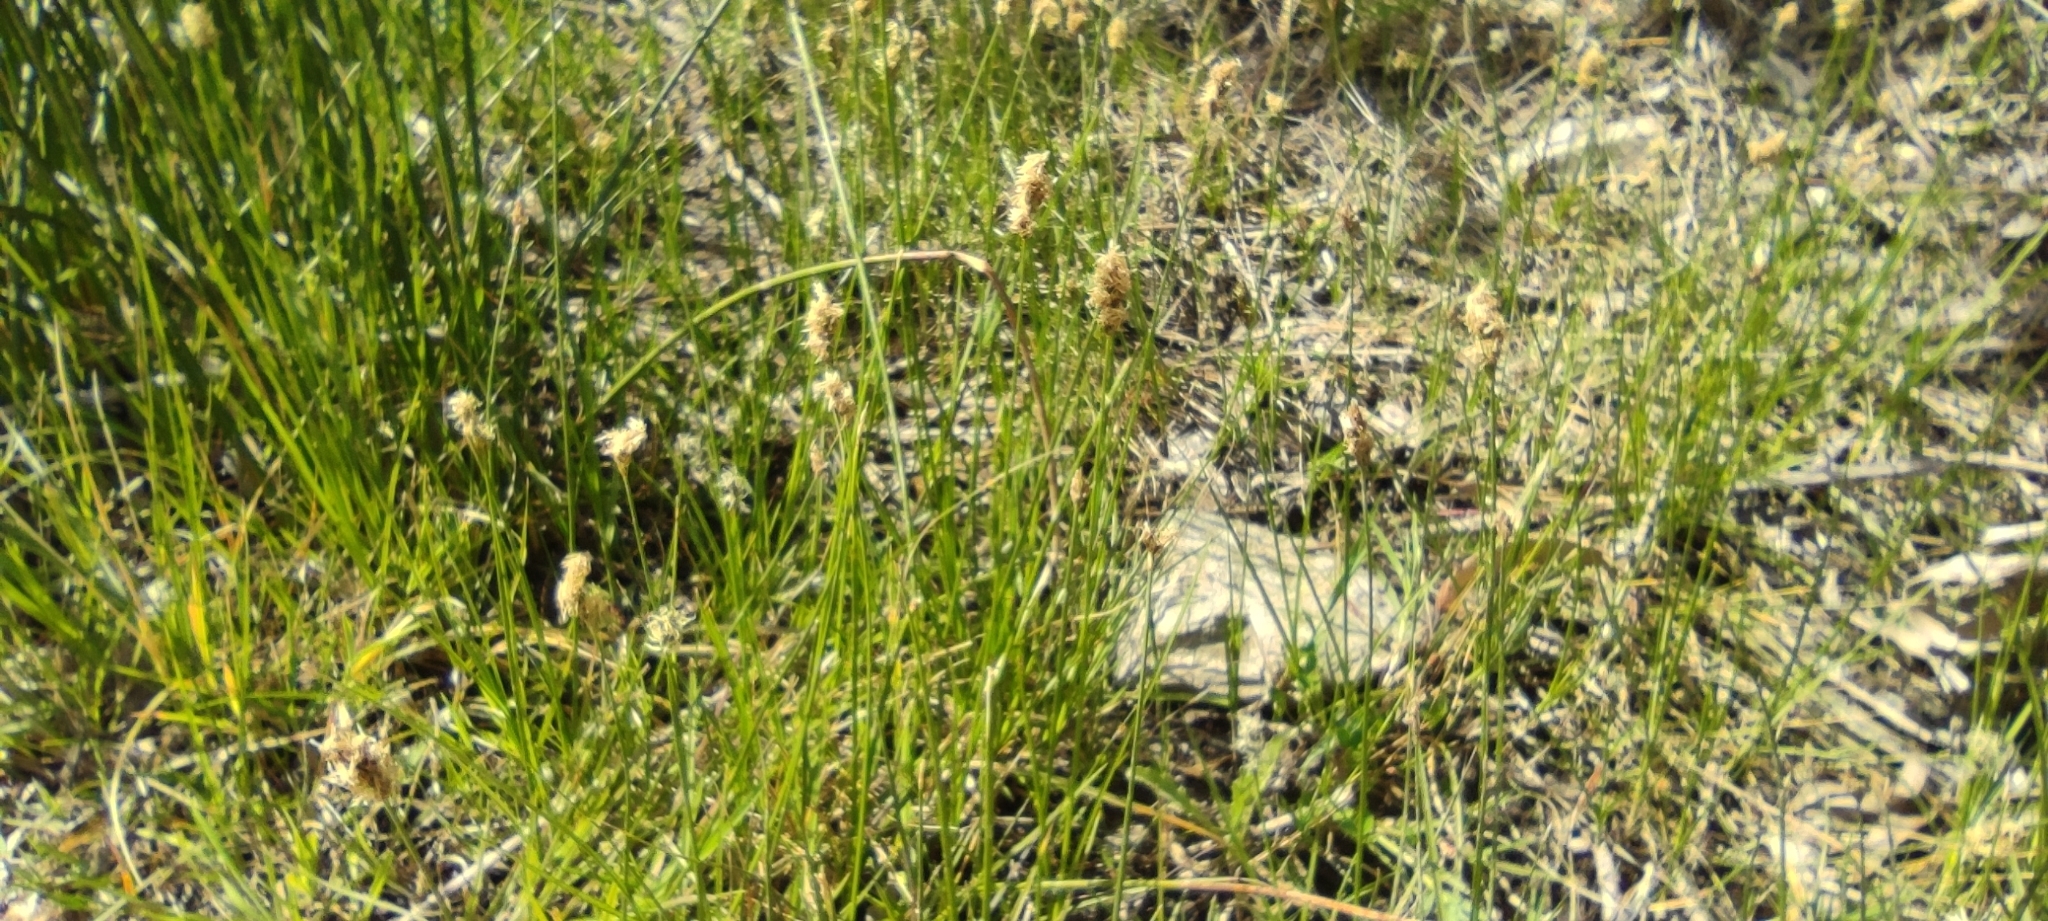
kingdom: Plantae
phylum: Tracheophyta
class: Liliopsida
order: Poales
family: Cyperaceae
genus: Carex
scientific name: Carex divisa
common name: Divided sedge
